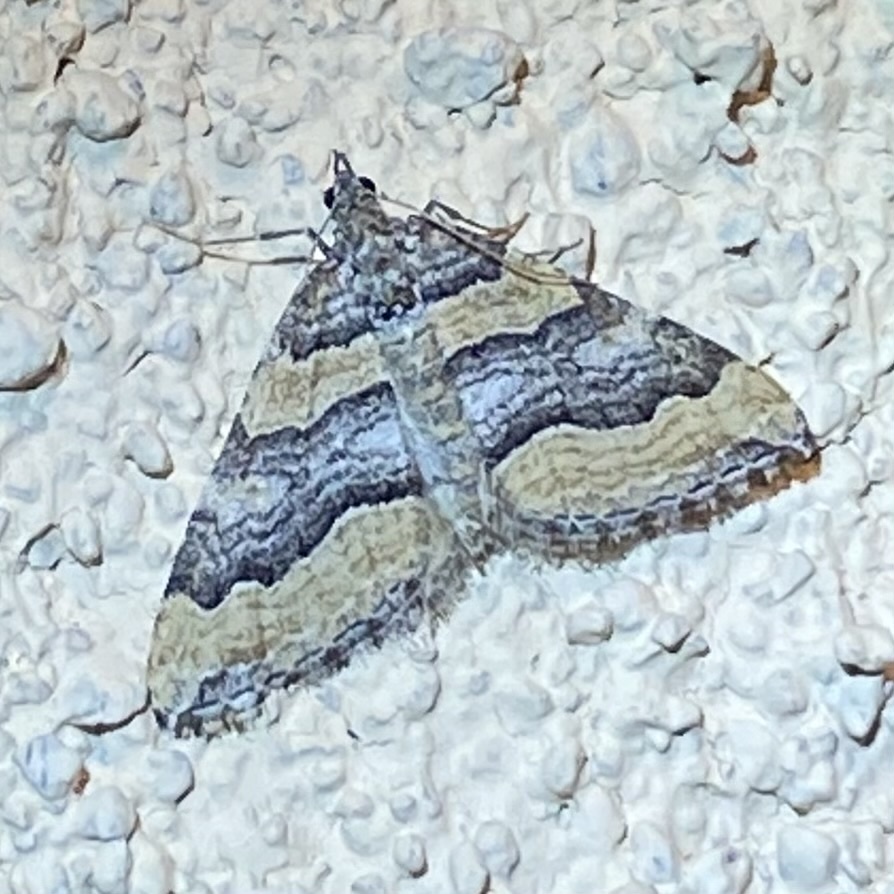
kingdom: Animalia
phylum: Arthropoda
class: Insecta
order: Lepidoptera
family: Geometridae
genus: Perizoma
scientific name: Perizoma custodiata
